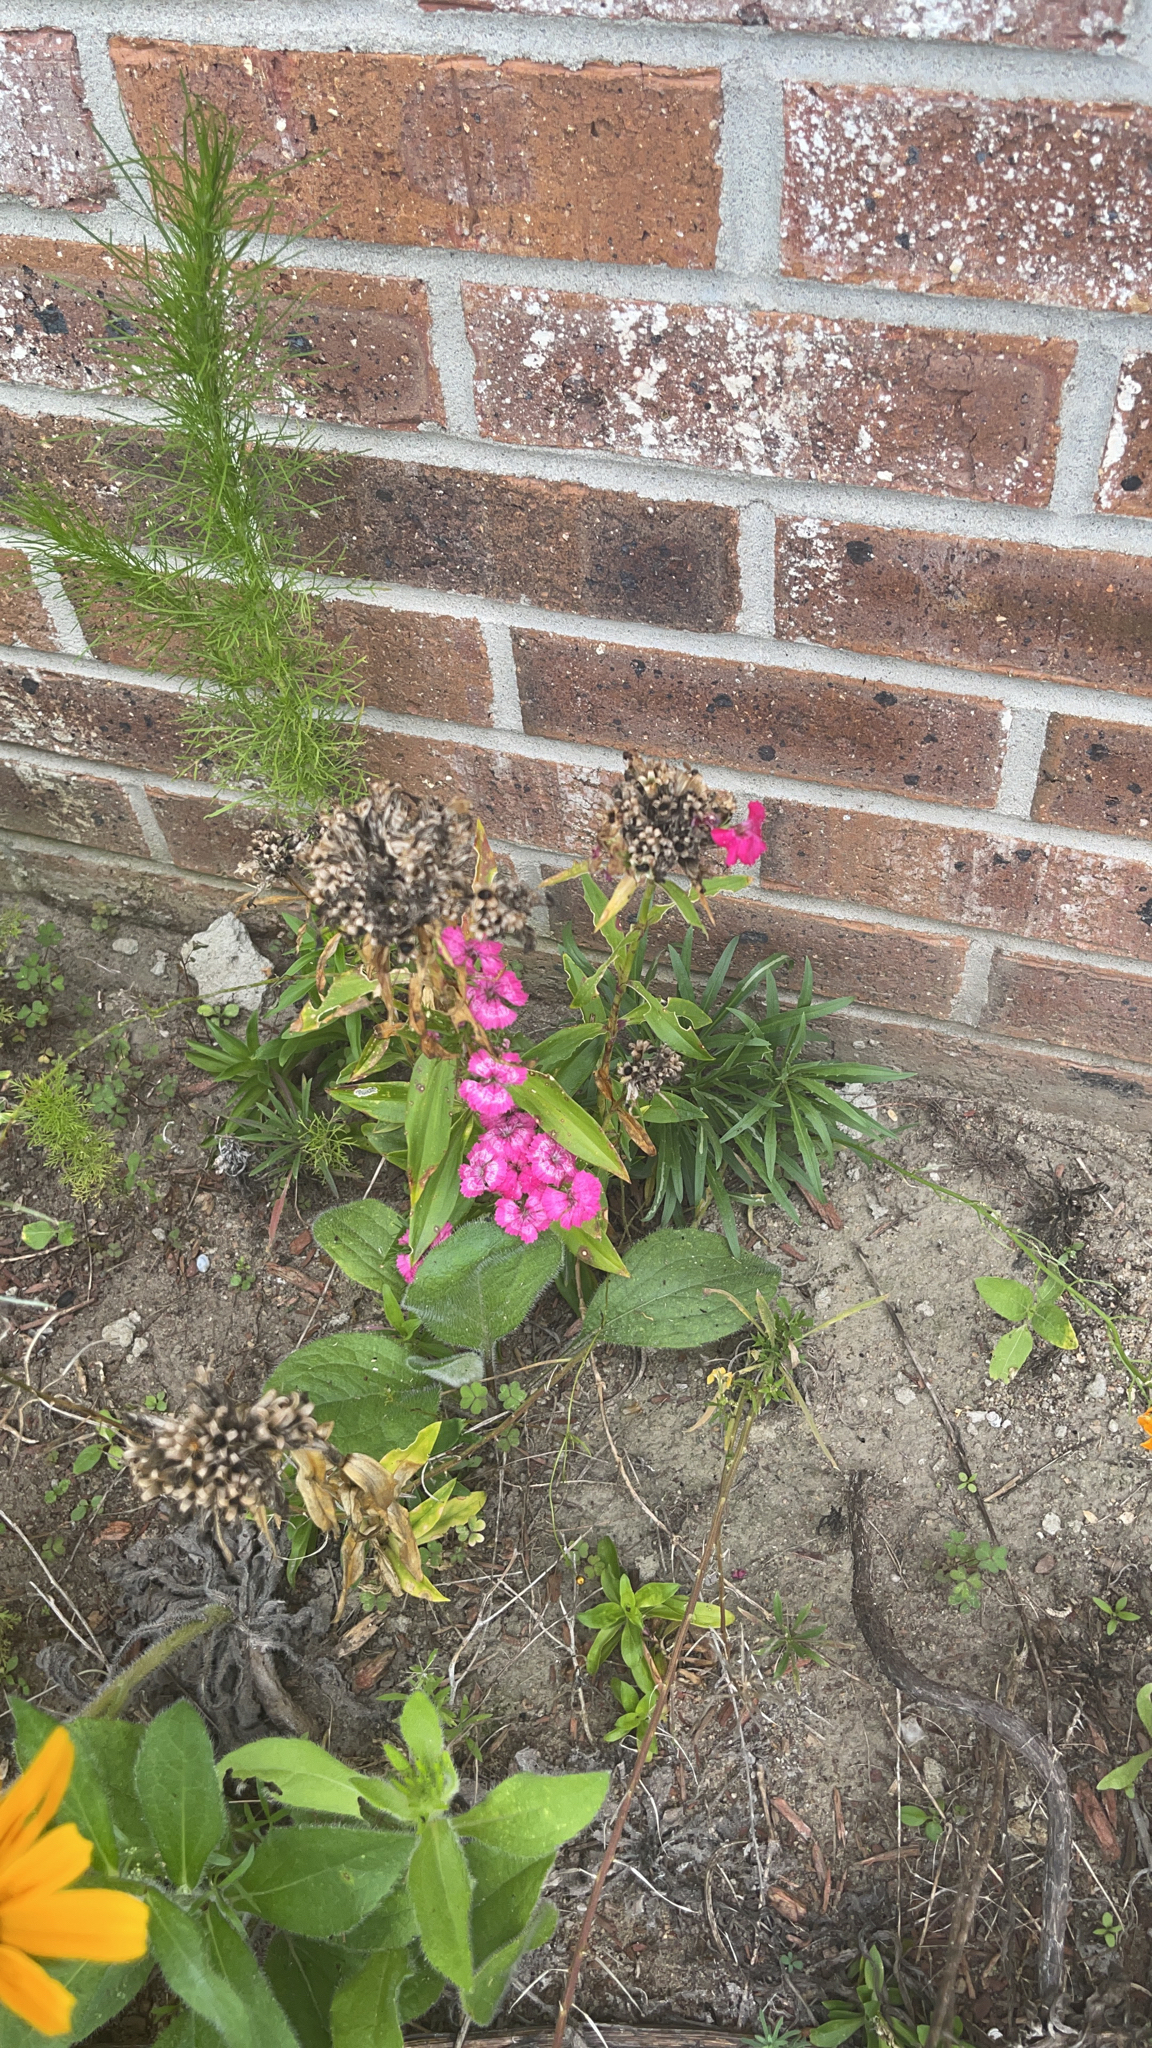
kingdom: Plantae
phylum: Tracheophyta
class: Magnoliopsida
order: Caryophyllales
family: Caryophyllaceae
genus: Dianthus
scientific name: Dianthus barbatus
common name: Sweet-william
